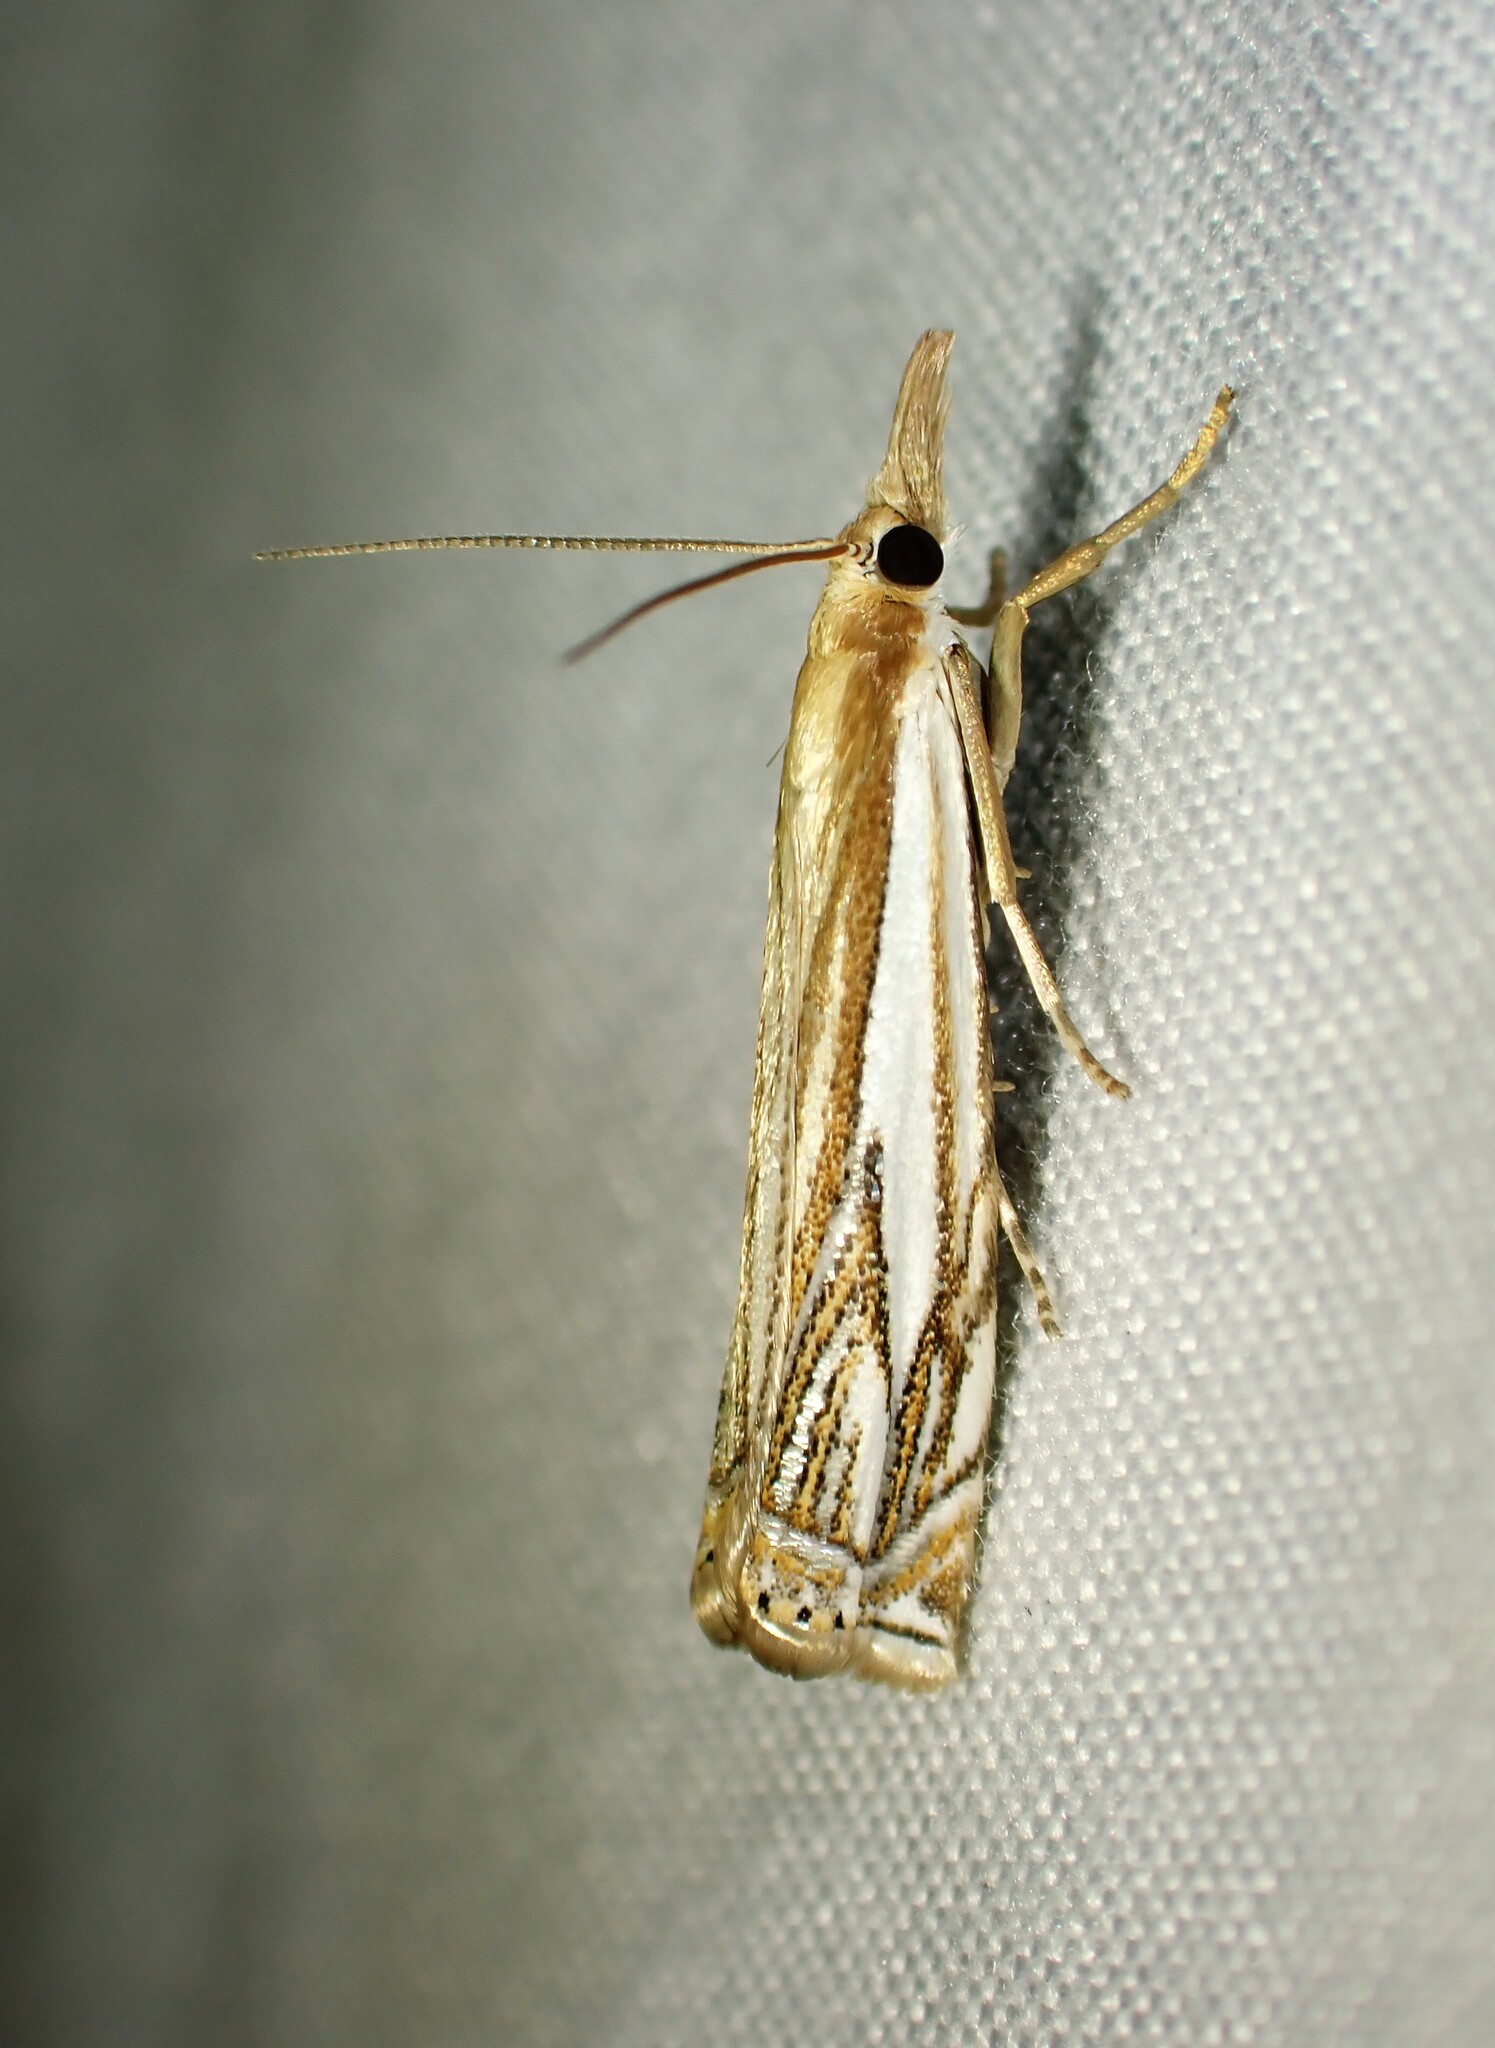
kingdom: Animalia
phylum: Arthropoda
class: Insecta
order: Lepidoptera
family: Crambidae
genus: Crambus
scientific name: Crambus saltuellus
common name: Pasture grass-veneer
